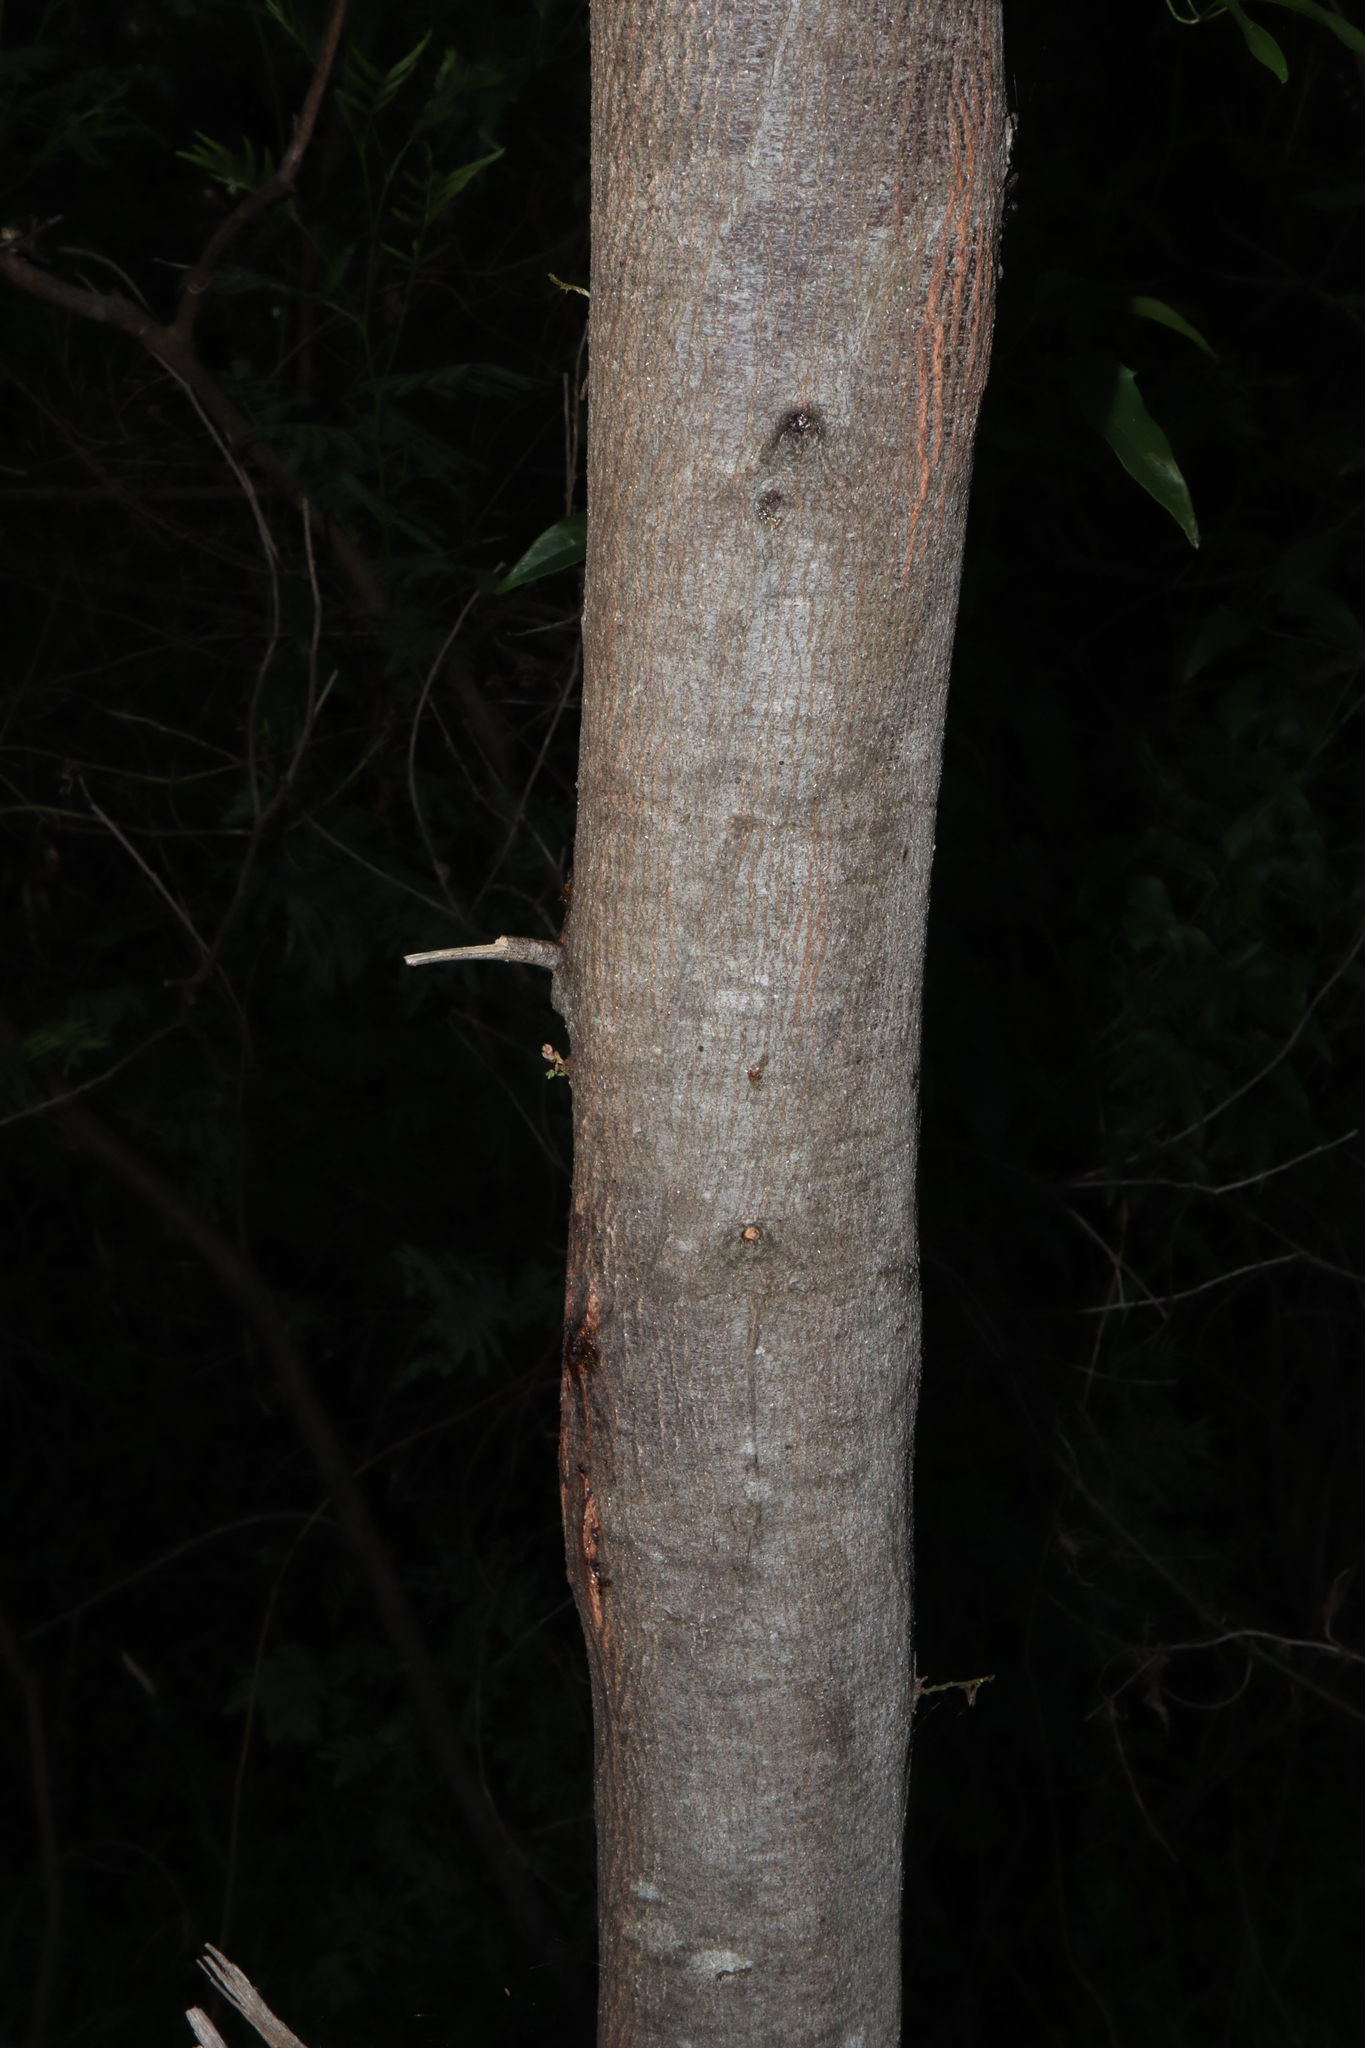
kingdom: Plantae
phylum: Tracheophyta
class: Magnoliopsida
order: Fabales
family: Fabaceae
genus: Acacia
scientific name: Acacia parramattensis
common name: Sydney green wattle
